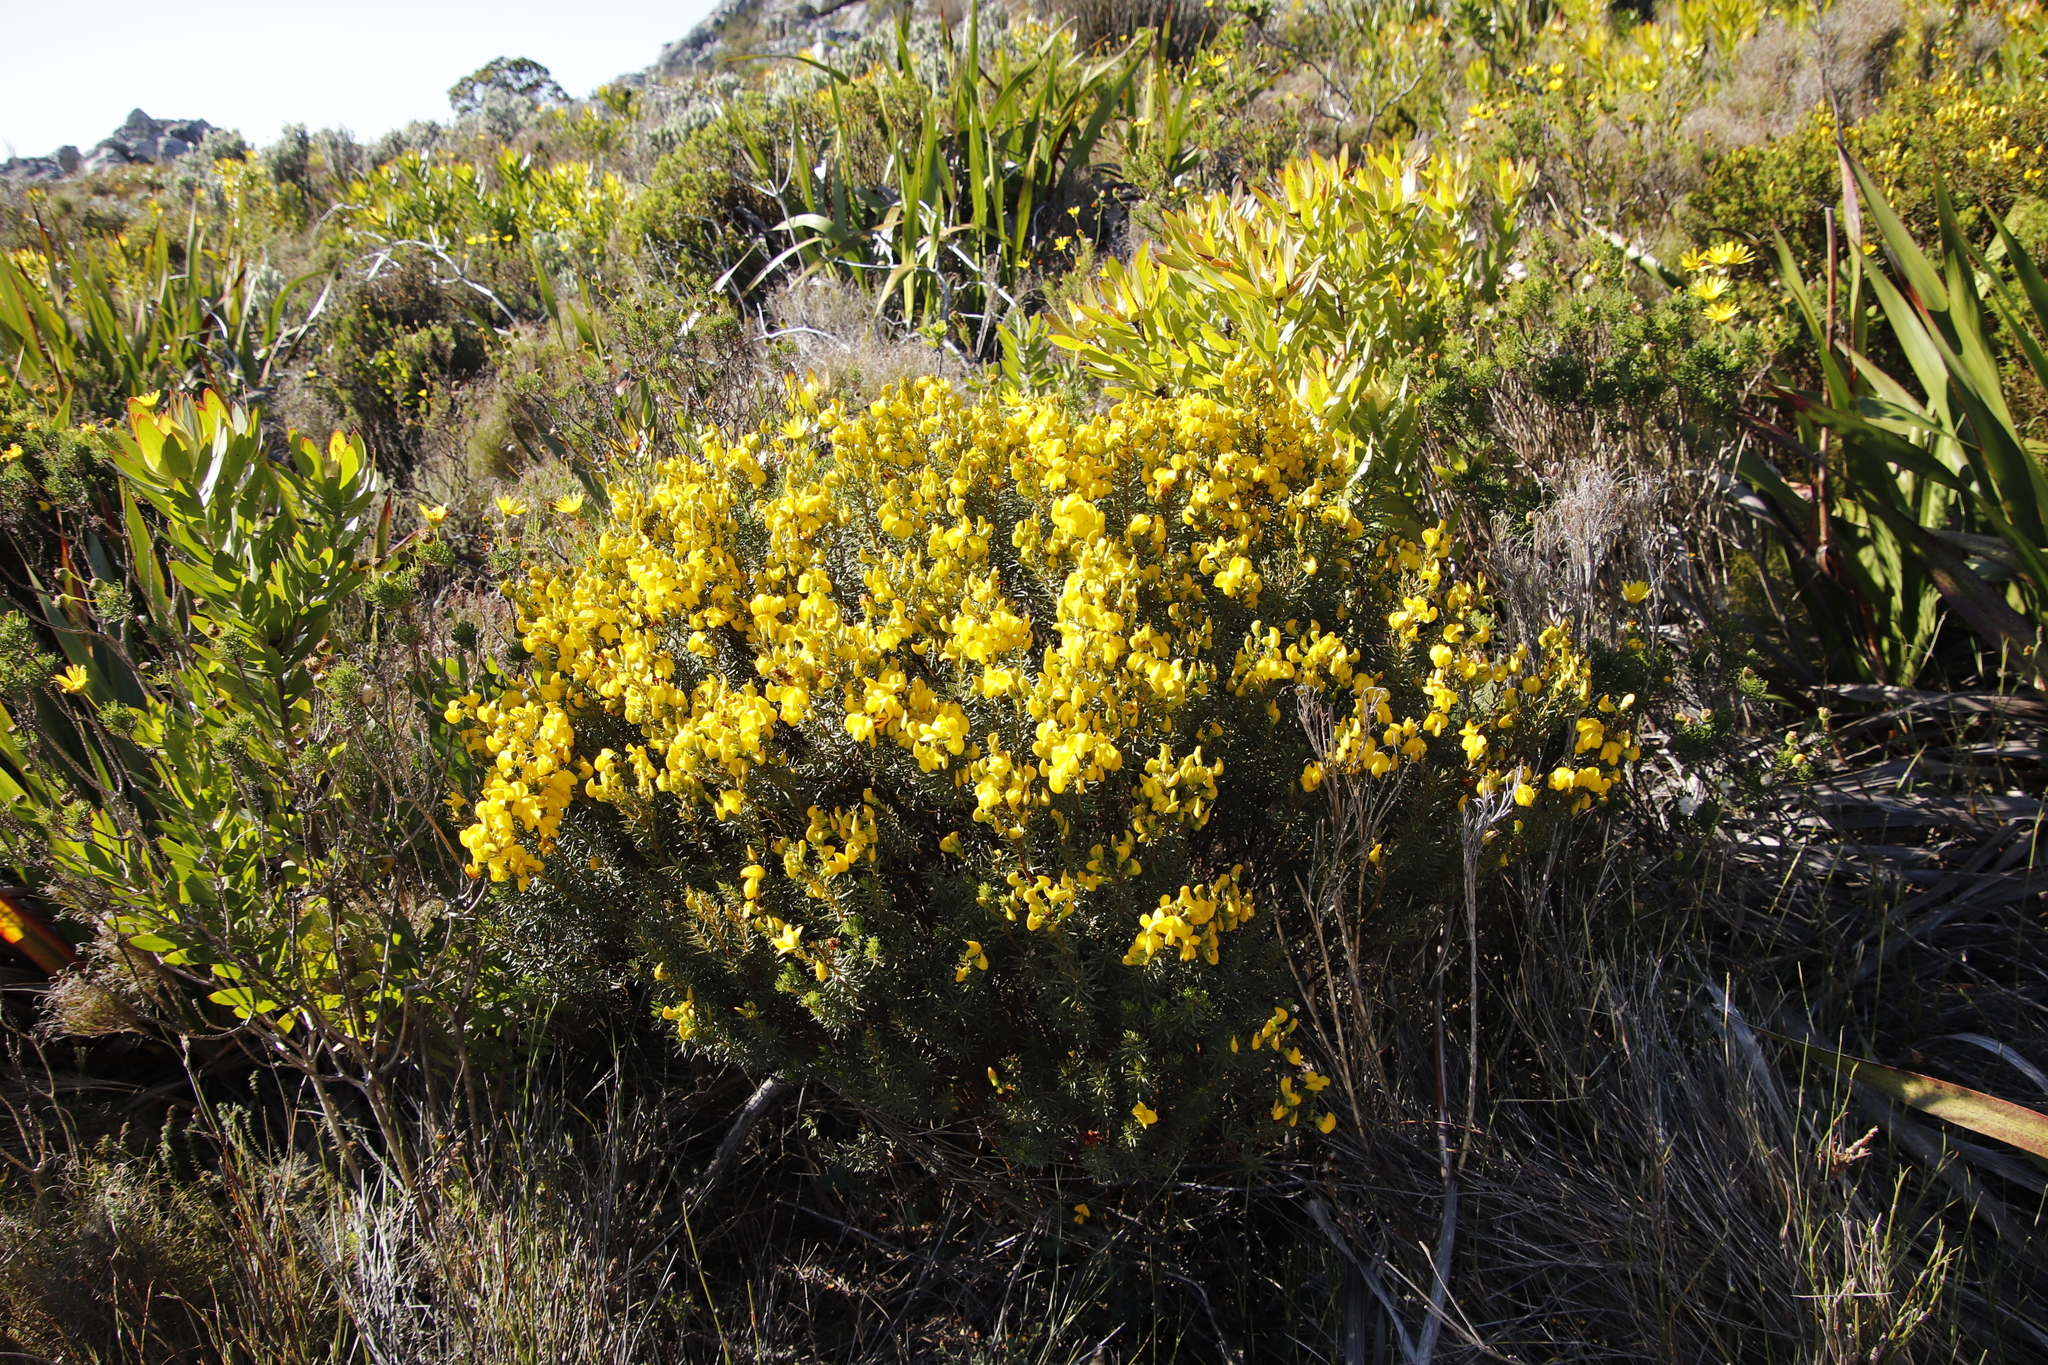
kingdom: Plantae
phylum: Tracheophyta
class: Magnoliopsida
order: Fabales
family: Fabaceae
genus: Cyclopia
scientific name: Cyclopia genistoides
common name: Honeybush tea
